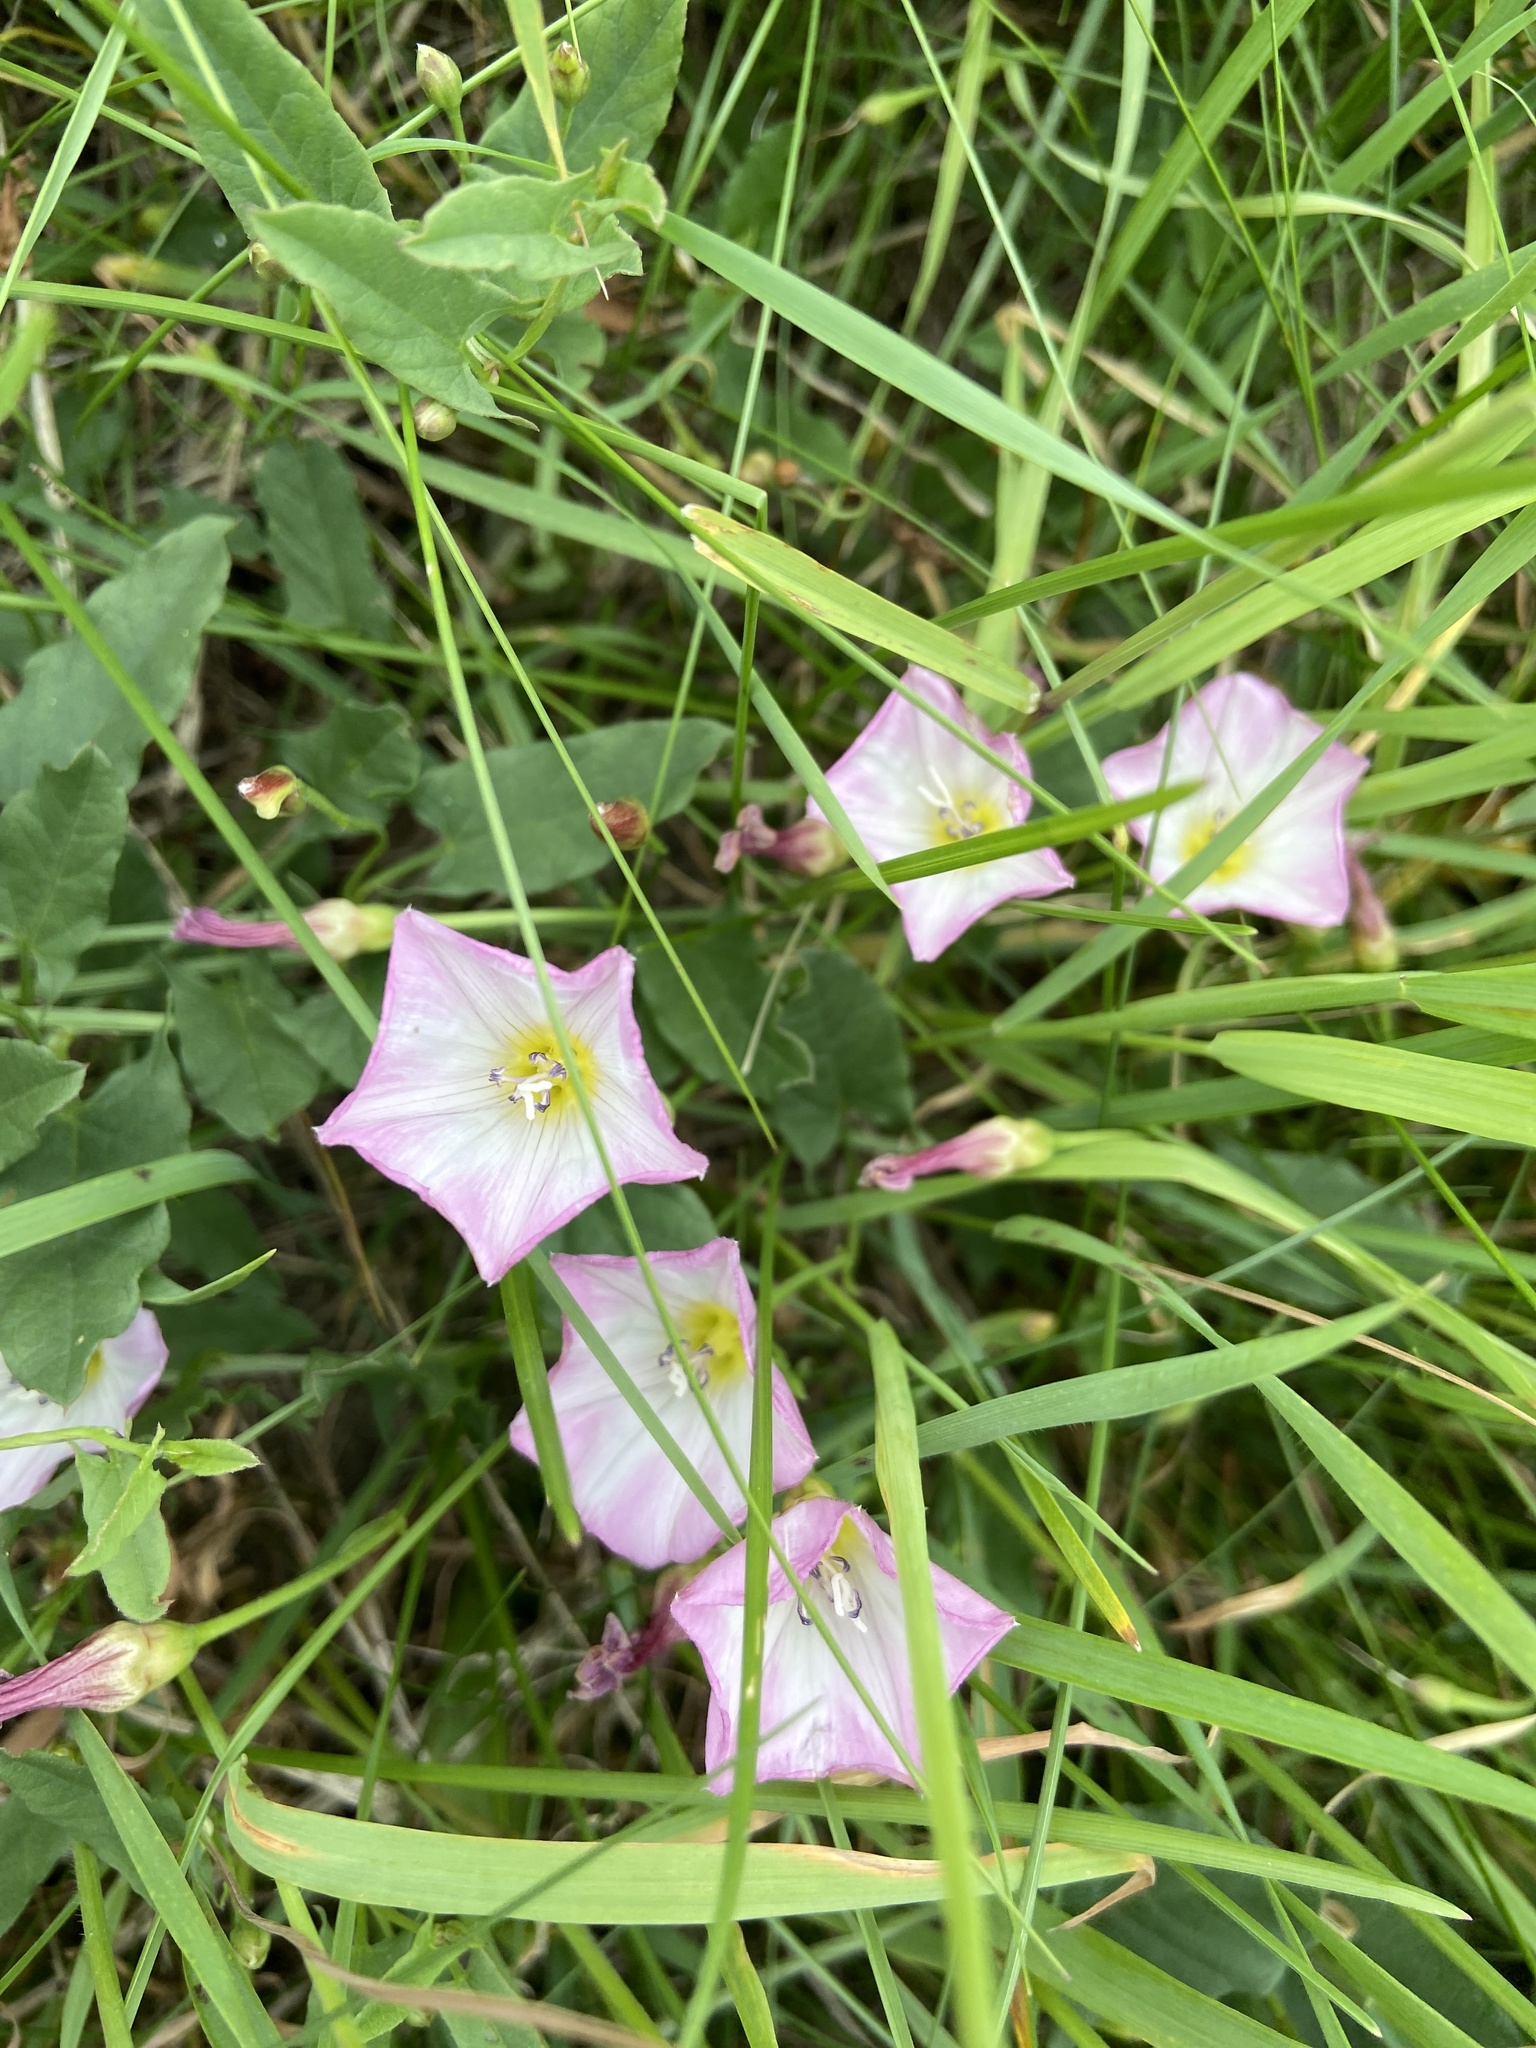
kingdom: Plantae
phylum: Tracheophyta
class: Magnoliopsida
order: Solanales
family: Convolvulaceae
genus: Convolvulus
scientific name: Convolvulus arvensis
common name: Field bindweed
